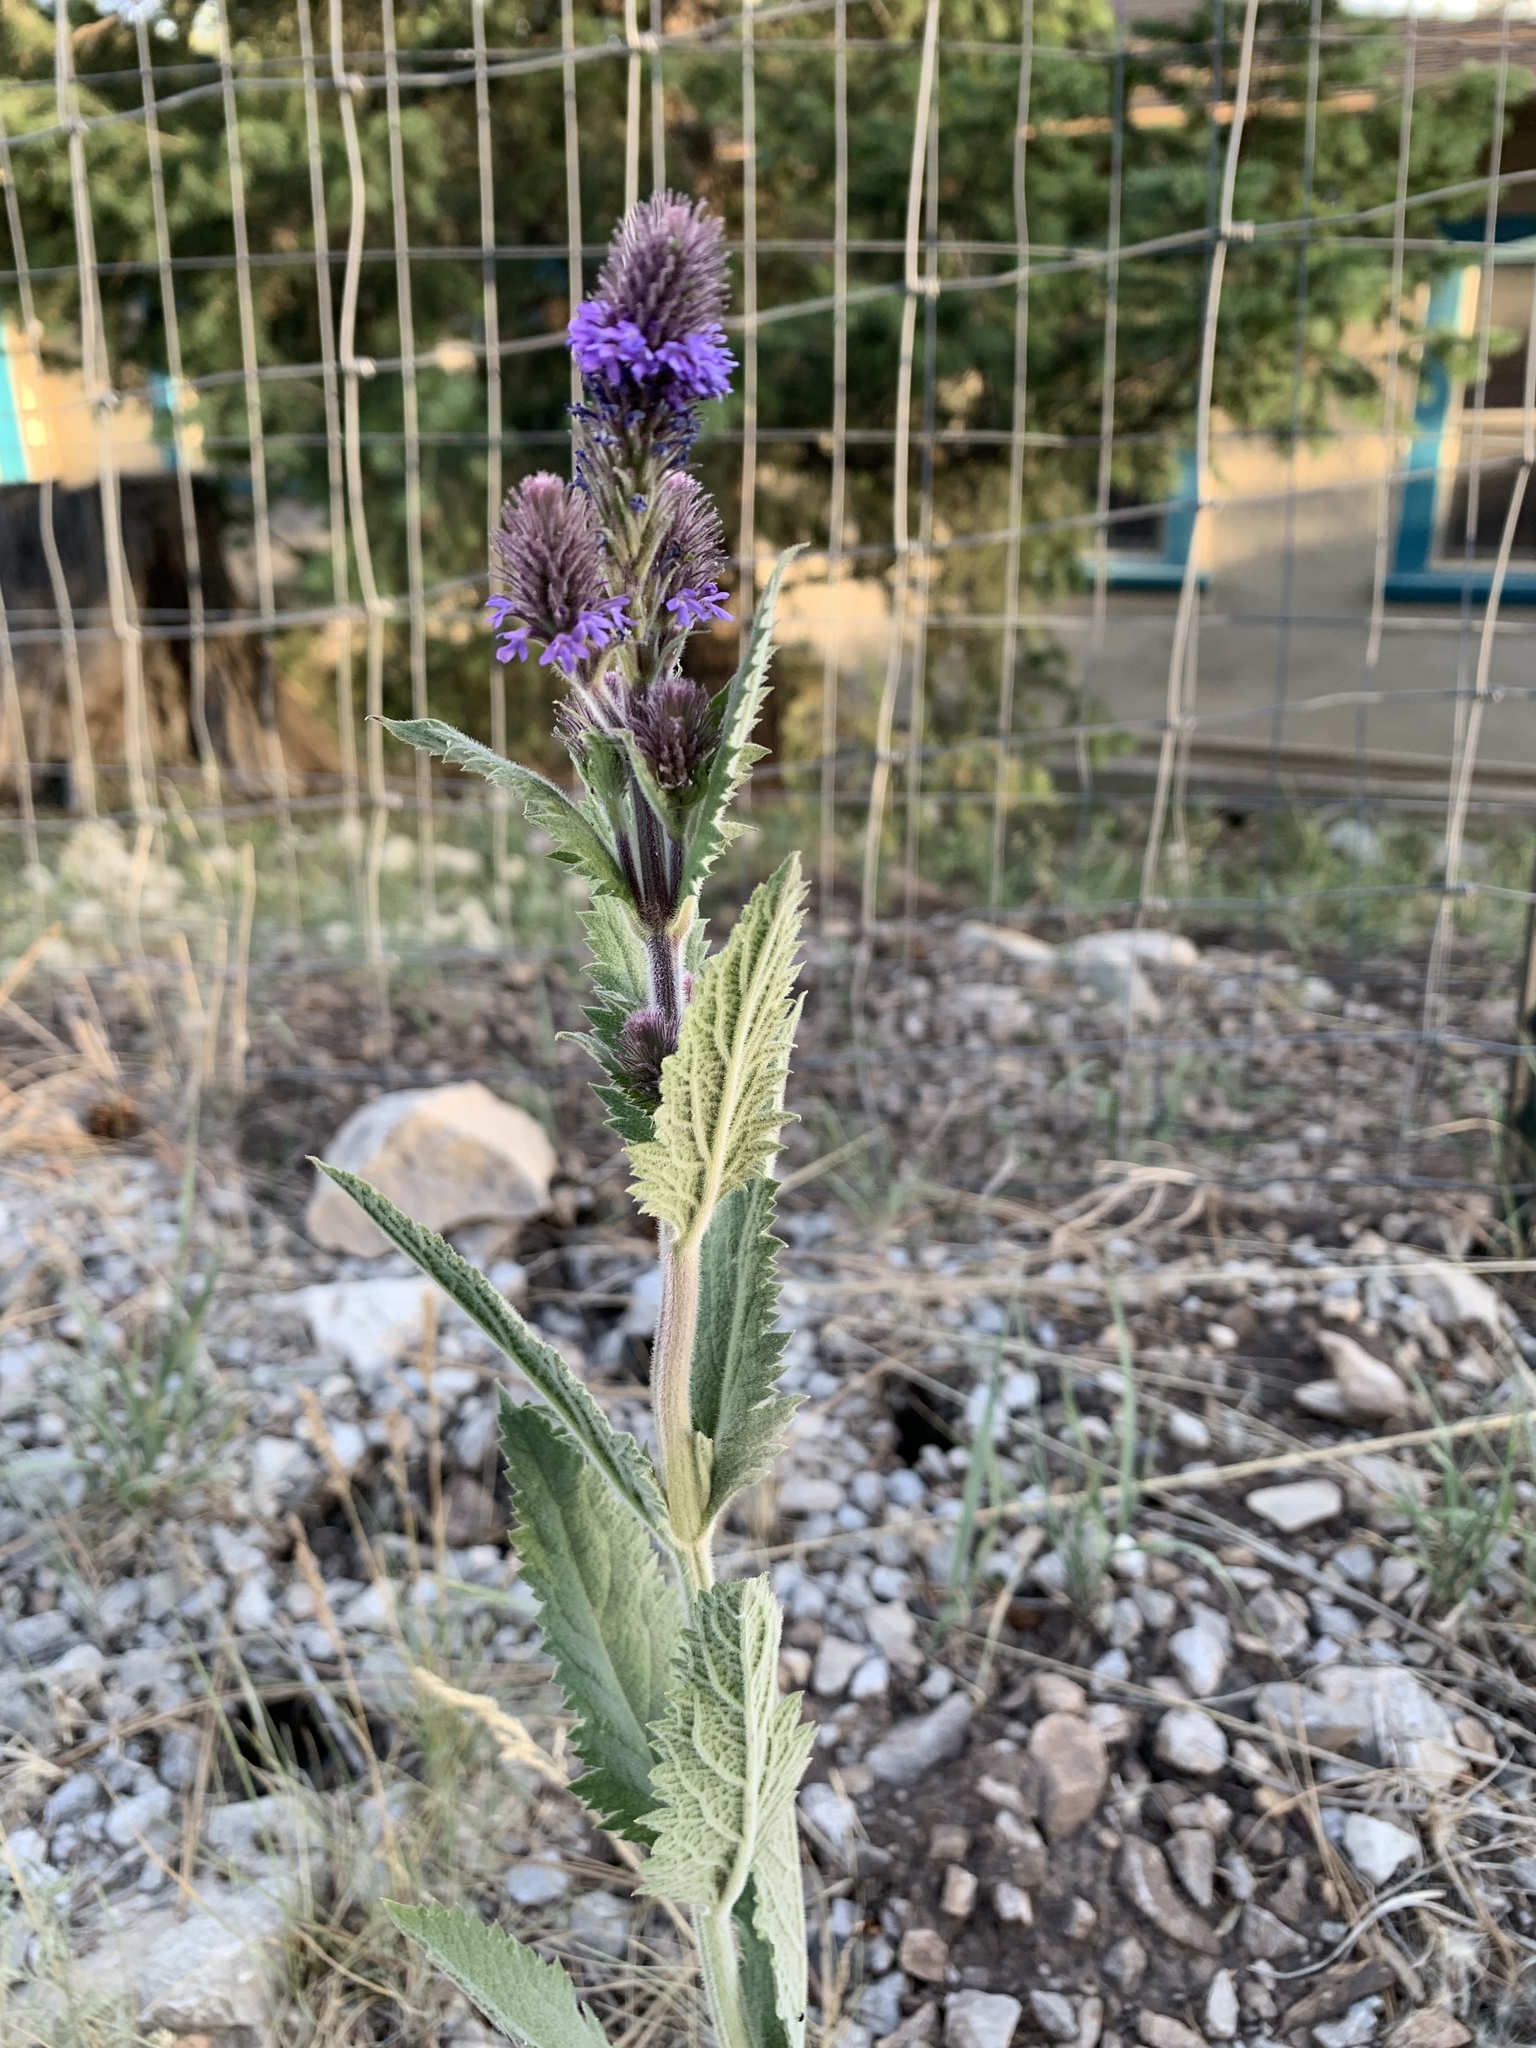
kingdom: Plantae
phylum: Tracheophyta
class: Magnoliopsida
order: Lamiales
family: Verbenaceae
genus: Verbena
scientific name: Verbena macdougalii
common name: New mexico vervain
